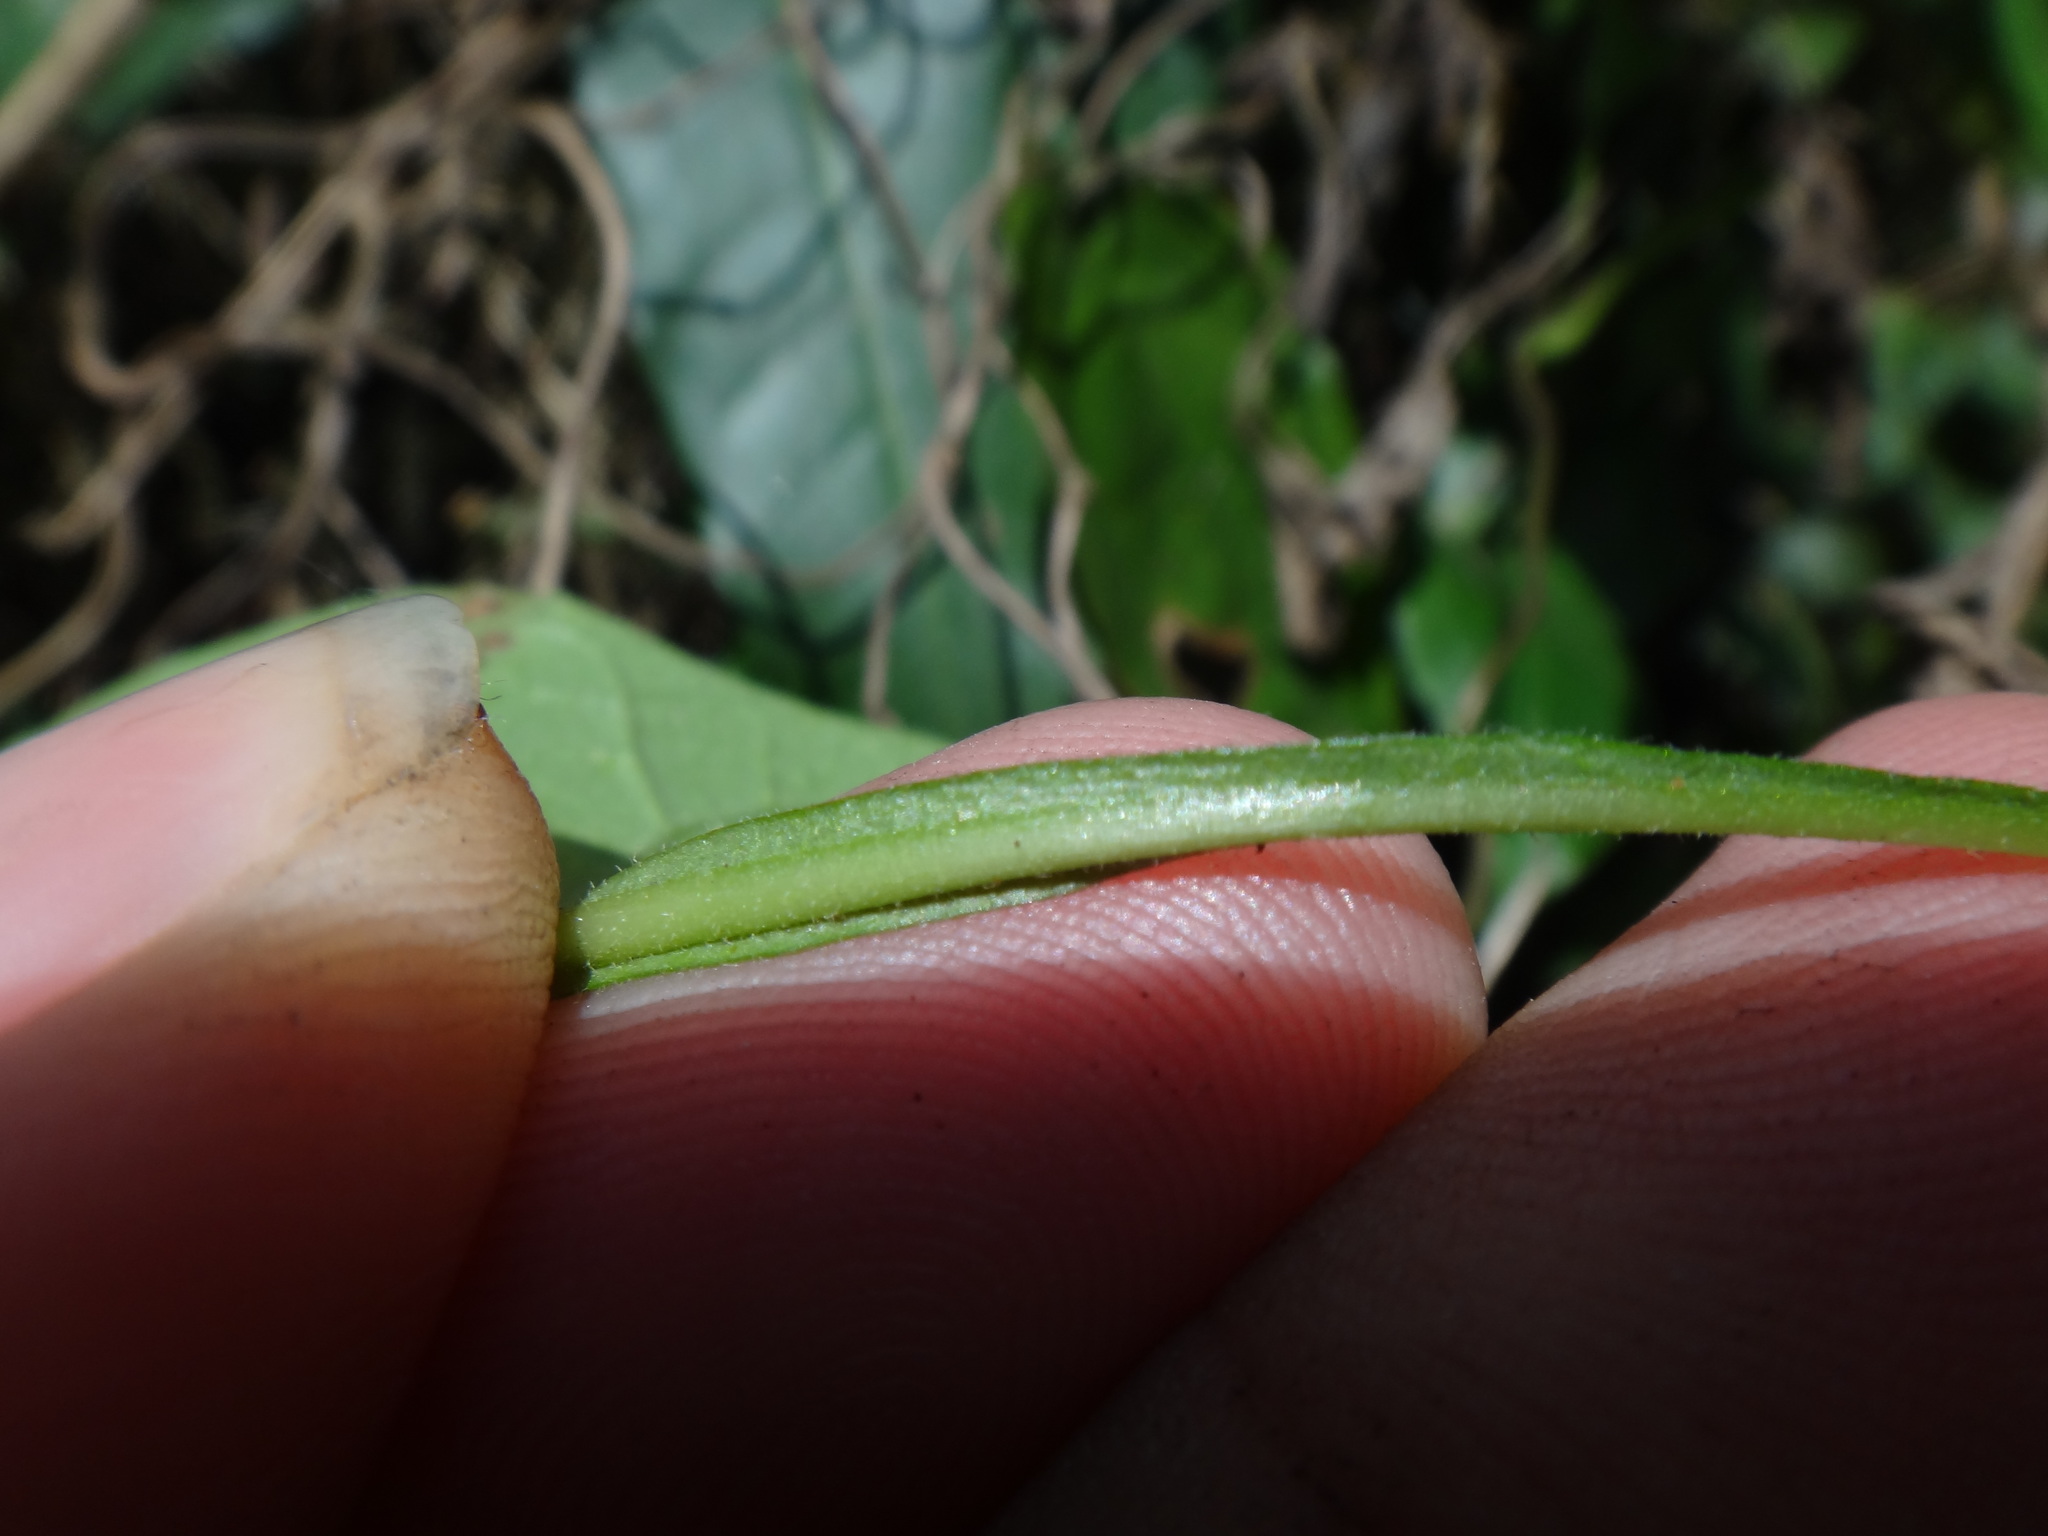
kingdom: Plantae
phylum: Tracheophyta
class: Magnoliopsida
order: Lamiales
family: Acanthaceae
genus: Thunbergia
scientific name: Thunbergia alata
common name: Blackeyed susan vine
